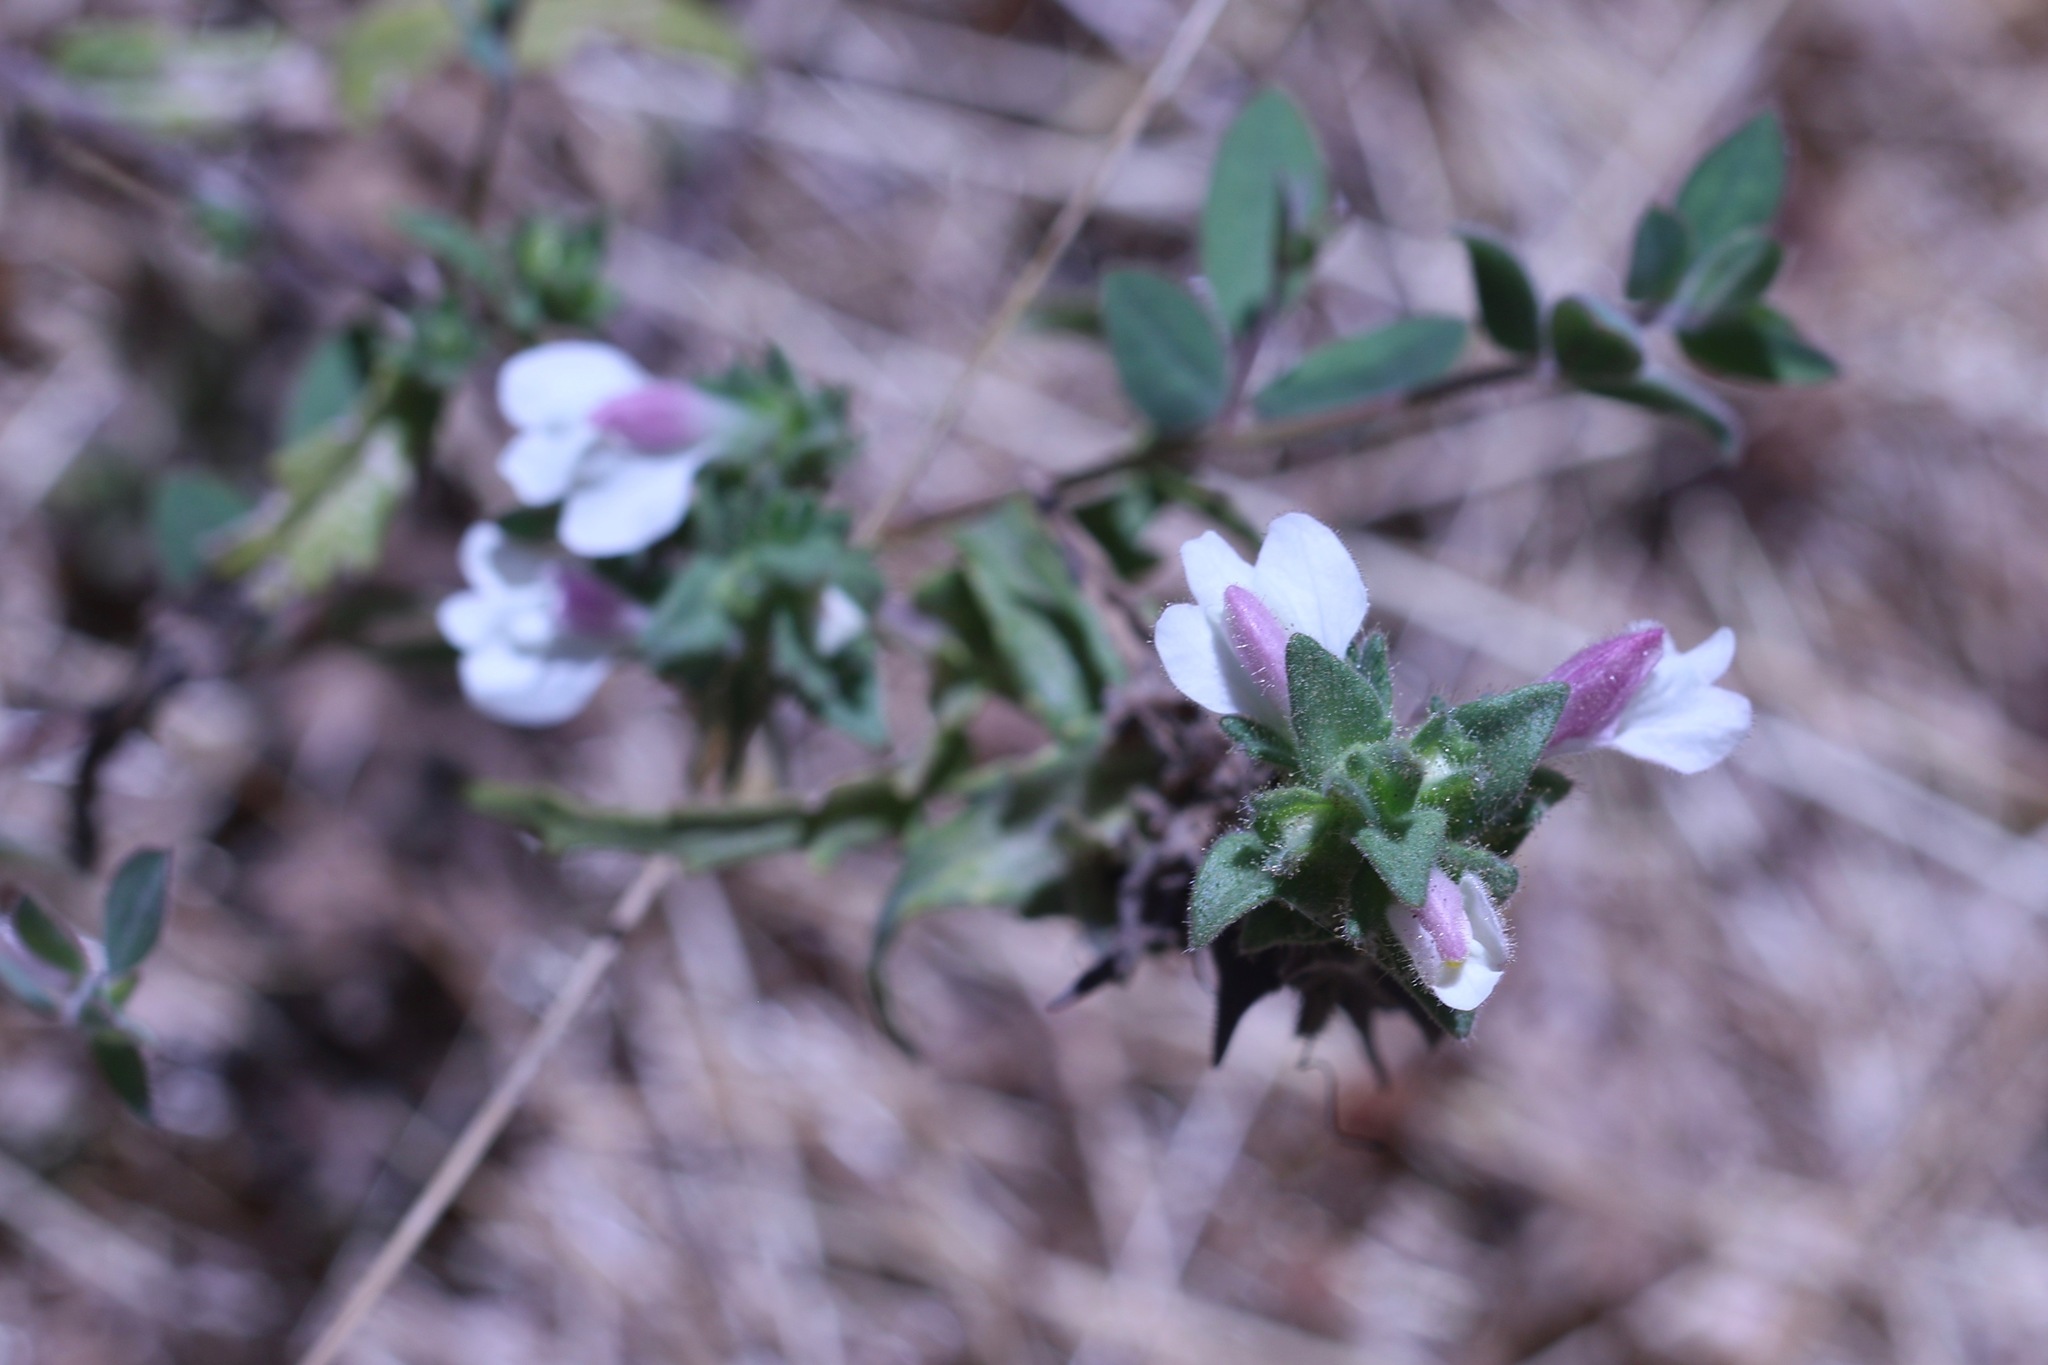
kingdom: Plantae
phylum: Tracheophyta
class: Magnoliopsida
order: Lamiales
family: Orobanchaceae
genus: Bellardia
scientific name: Bellardia trixago
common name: Mediterranean lineseed
